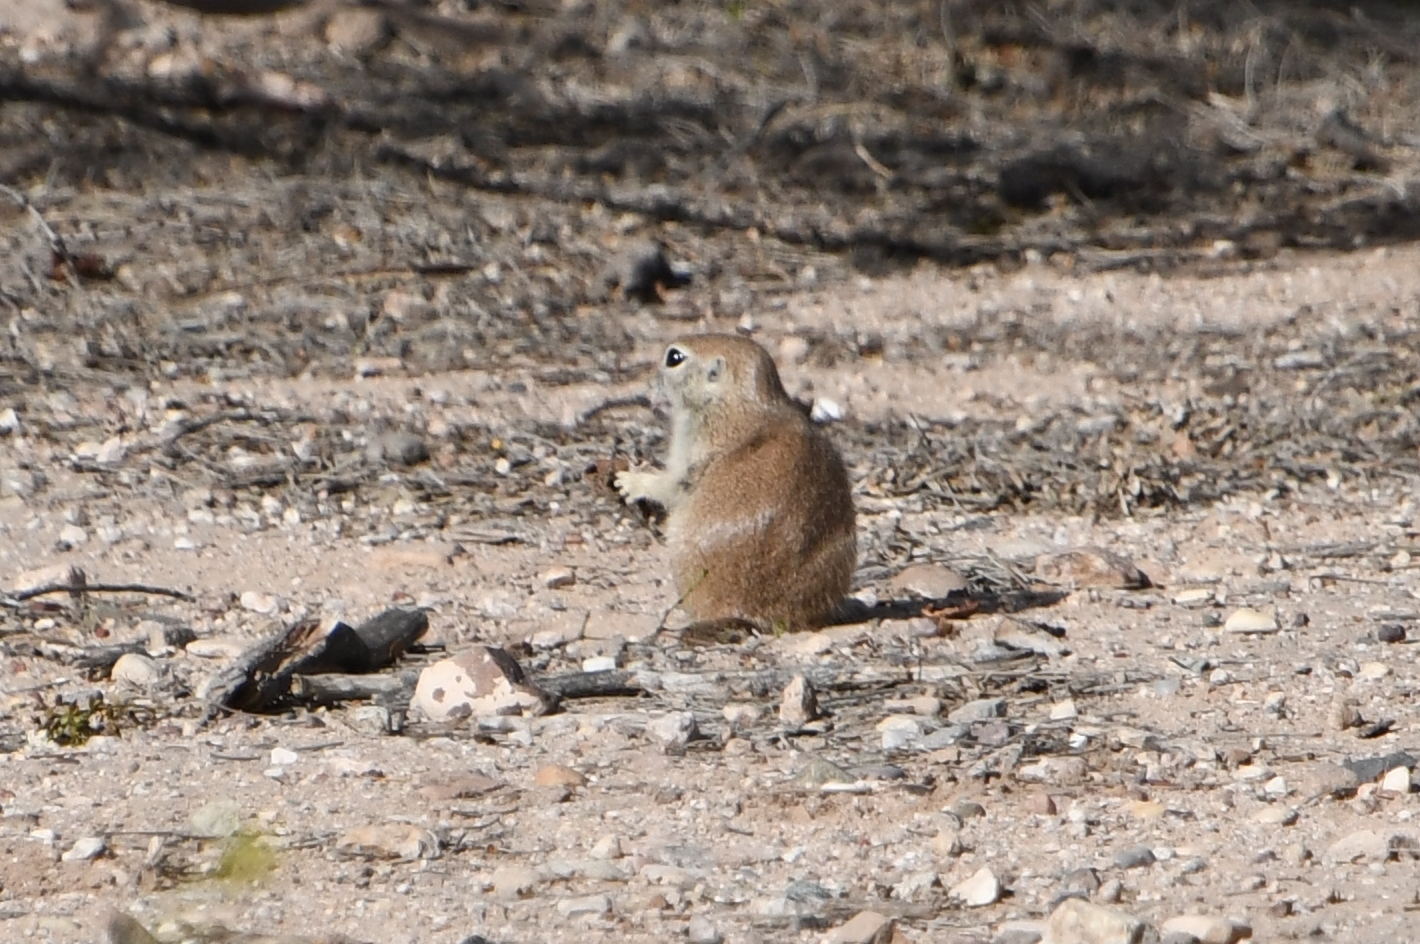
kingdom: Animalia
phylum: Chordata
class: Mammalia
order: Rodentia
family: Sciuridae
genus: Xerospermophilus
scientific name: Xerospermophilus tereticaudus
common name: Round-tailed ground squirrel
